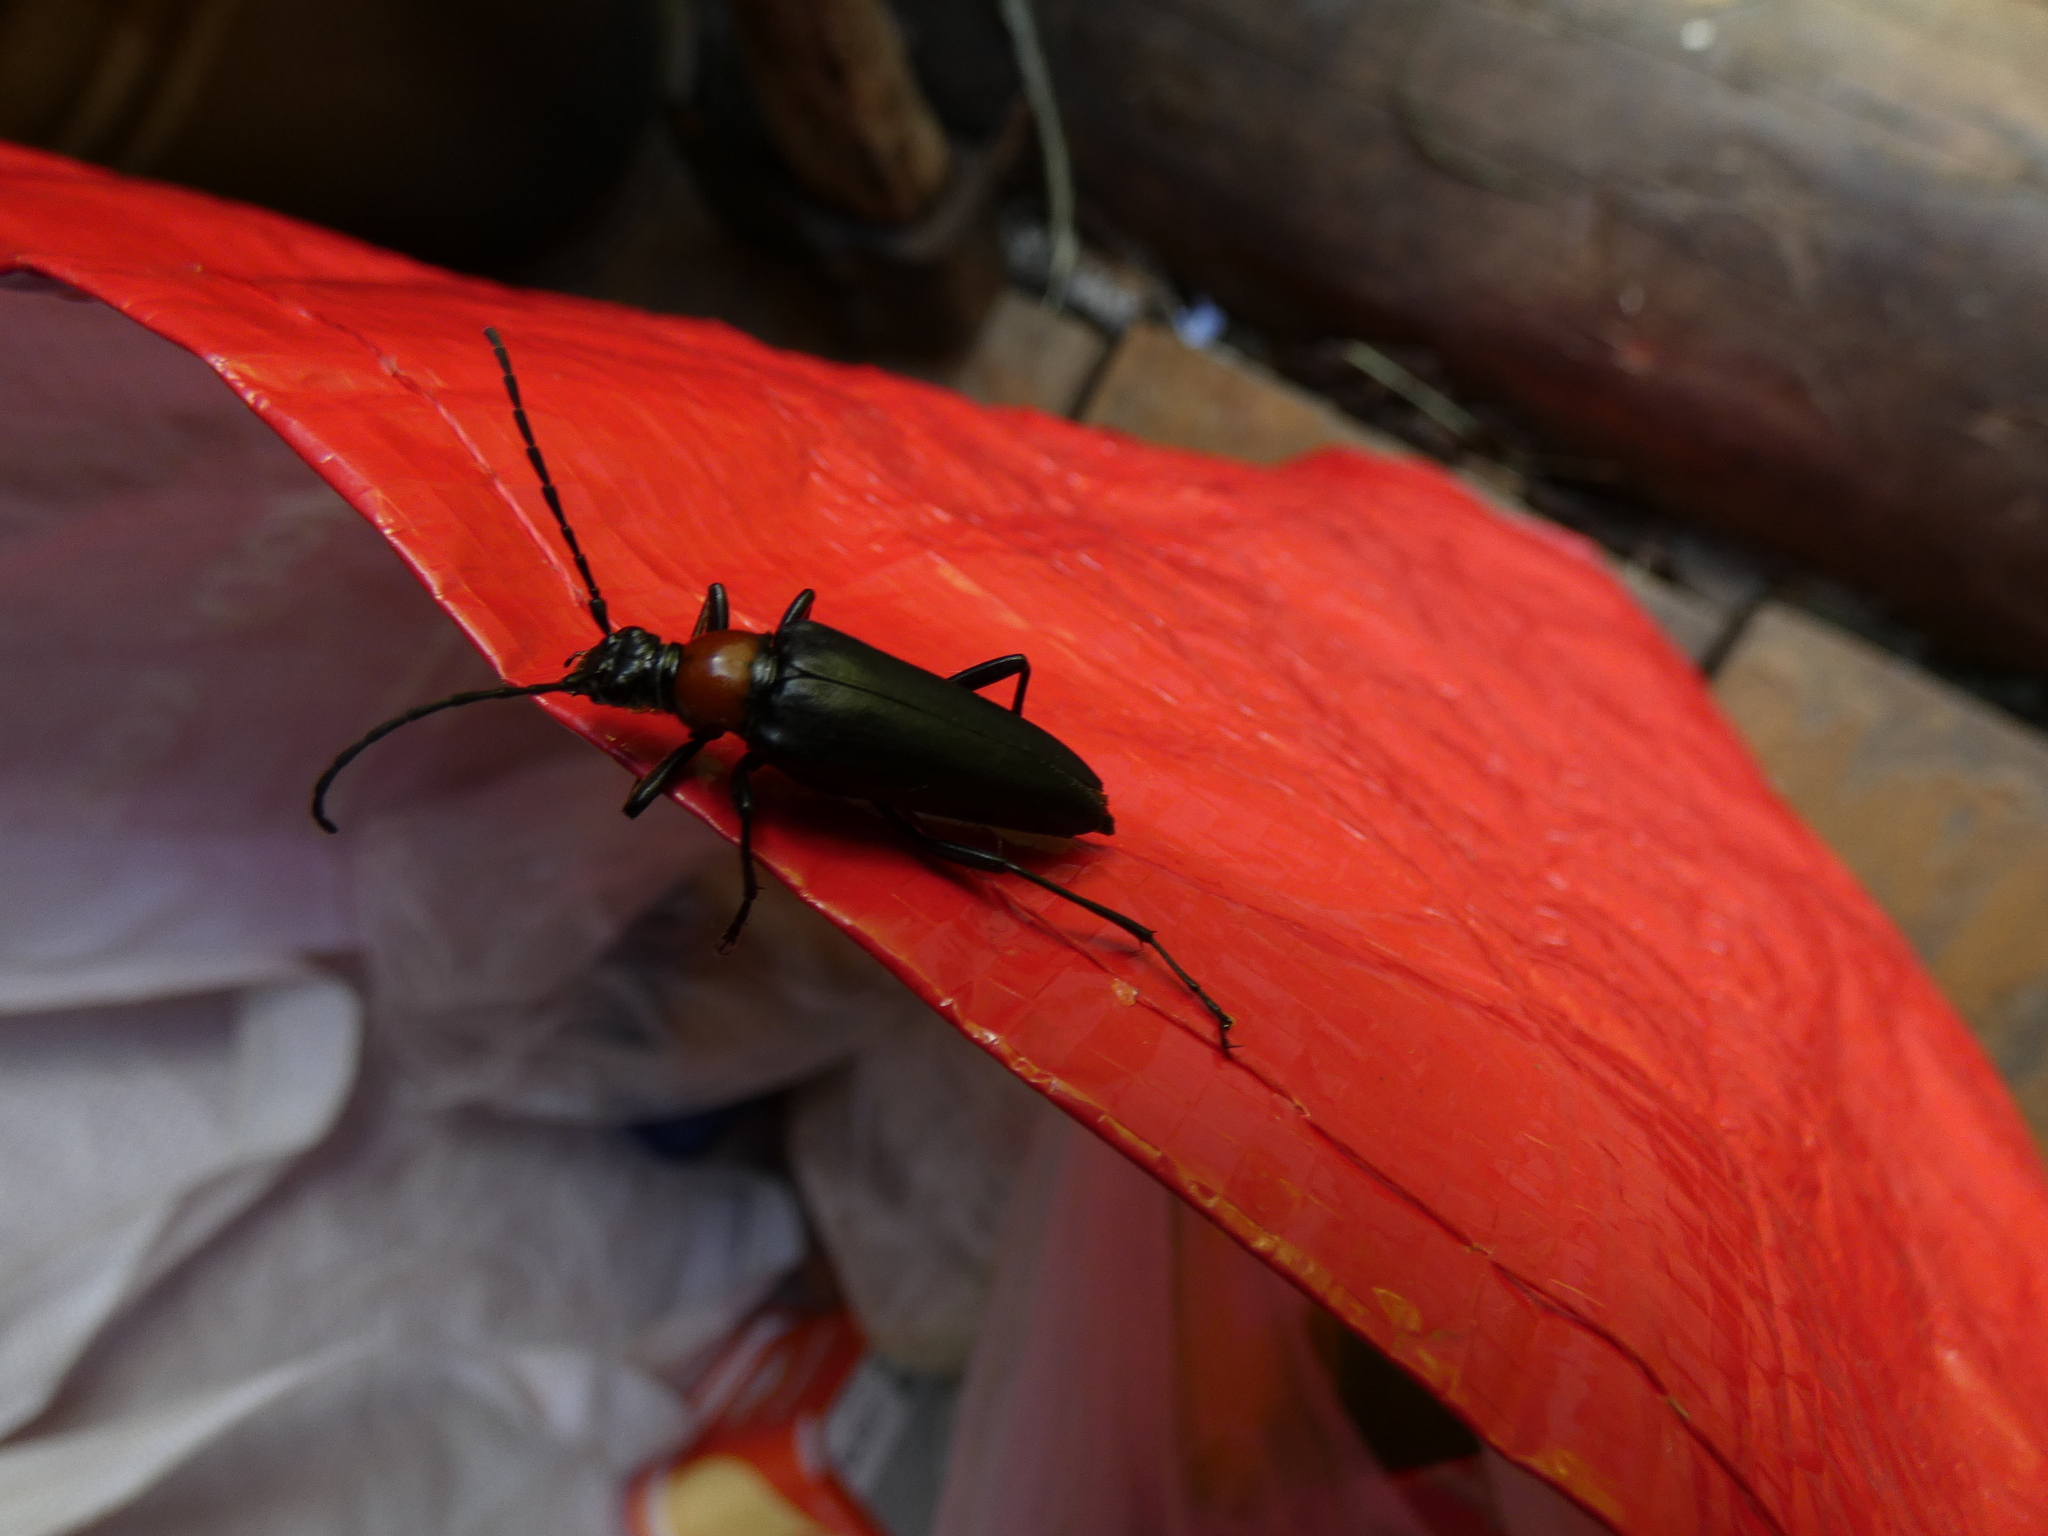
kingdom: Animalia
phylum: Arthropoda
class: Insecta
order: Coleoptera
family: Cerambycidae
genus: Leptura
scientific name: Leptura thoracica
